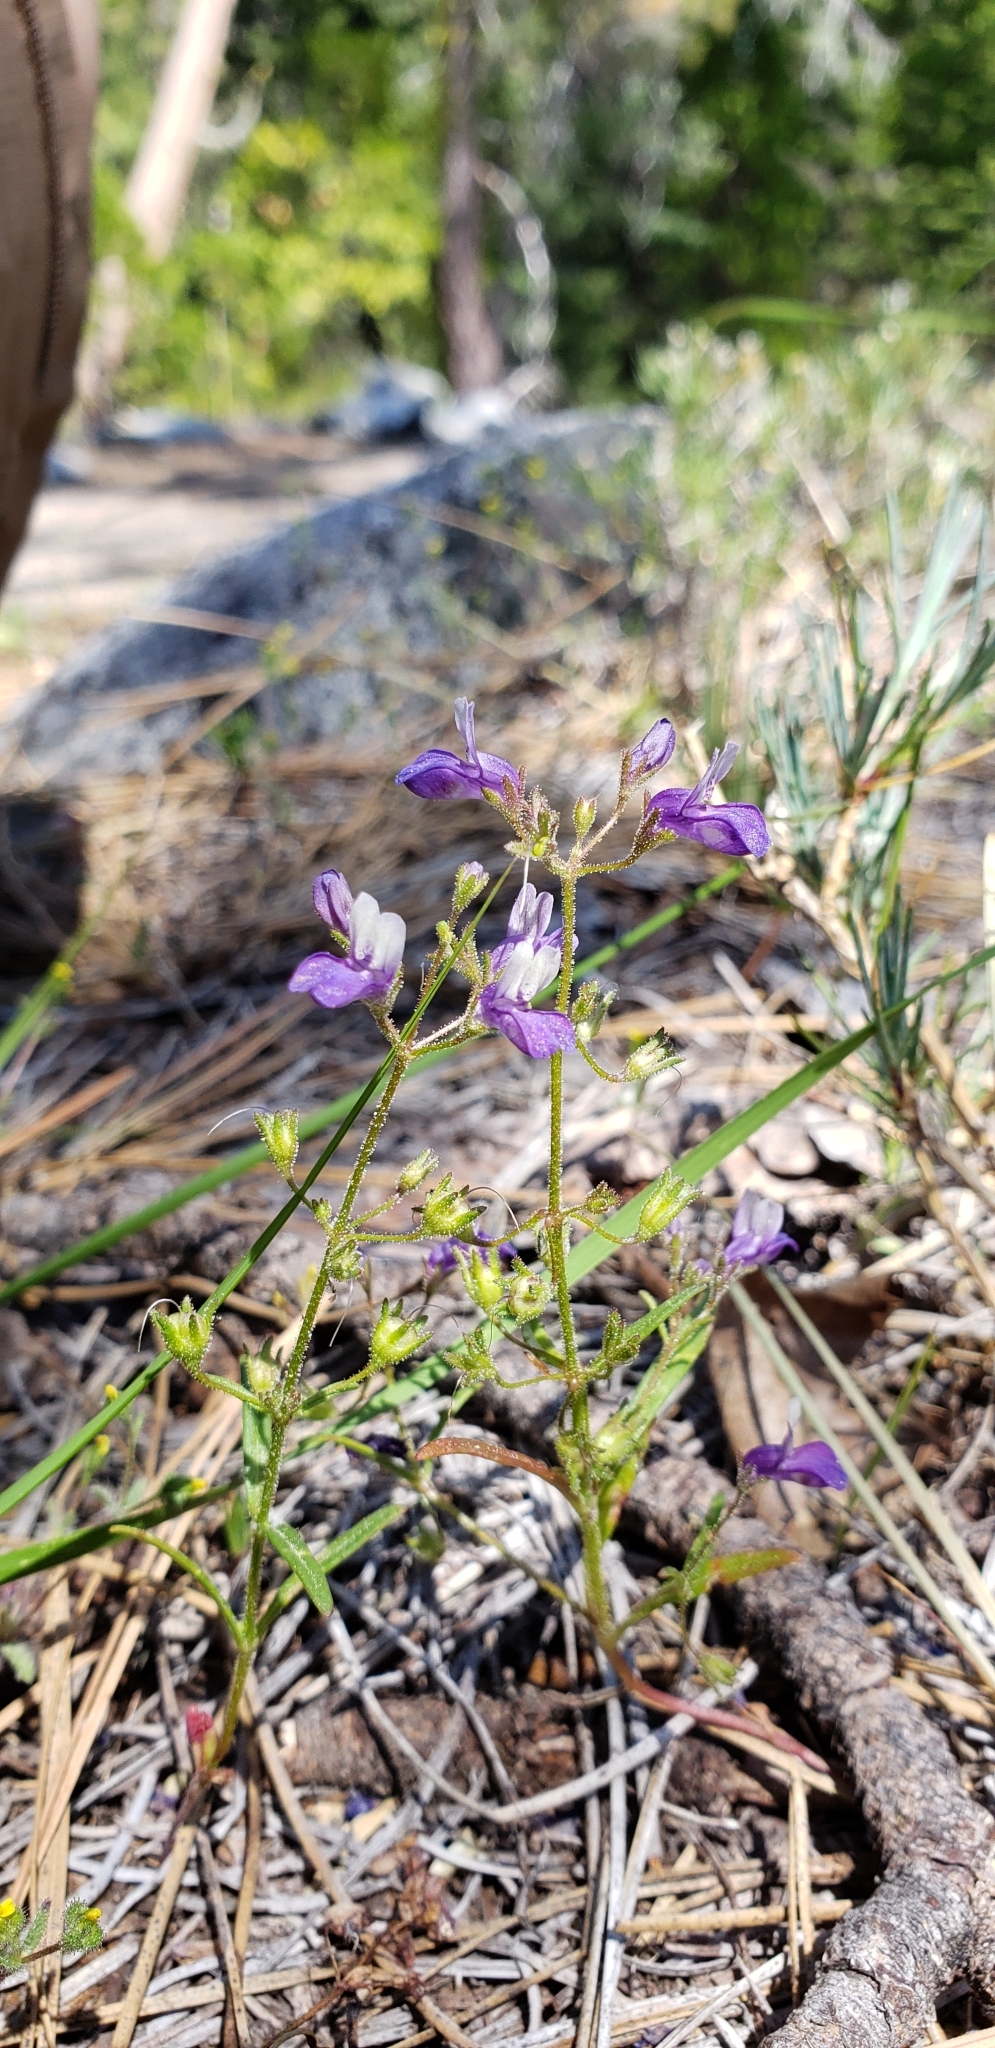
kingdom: Plantae
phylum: Tracheophyta
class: Magnoliopsida
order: Lamiales
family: Plantaginaceae
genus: Collinsia
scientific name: Collinsia torreyi
